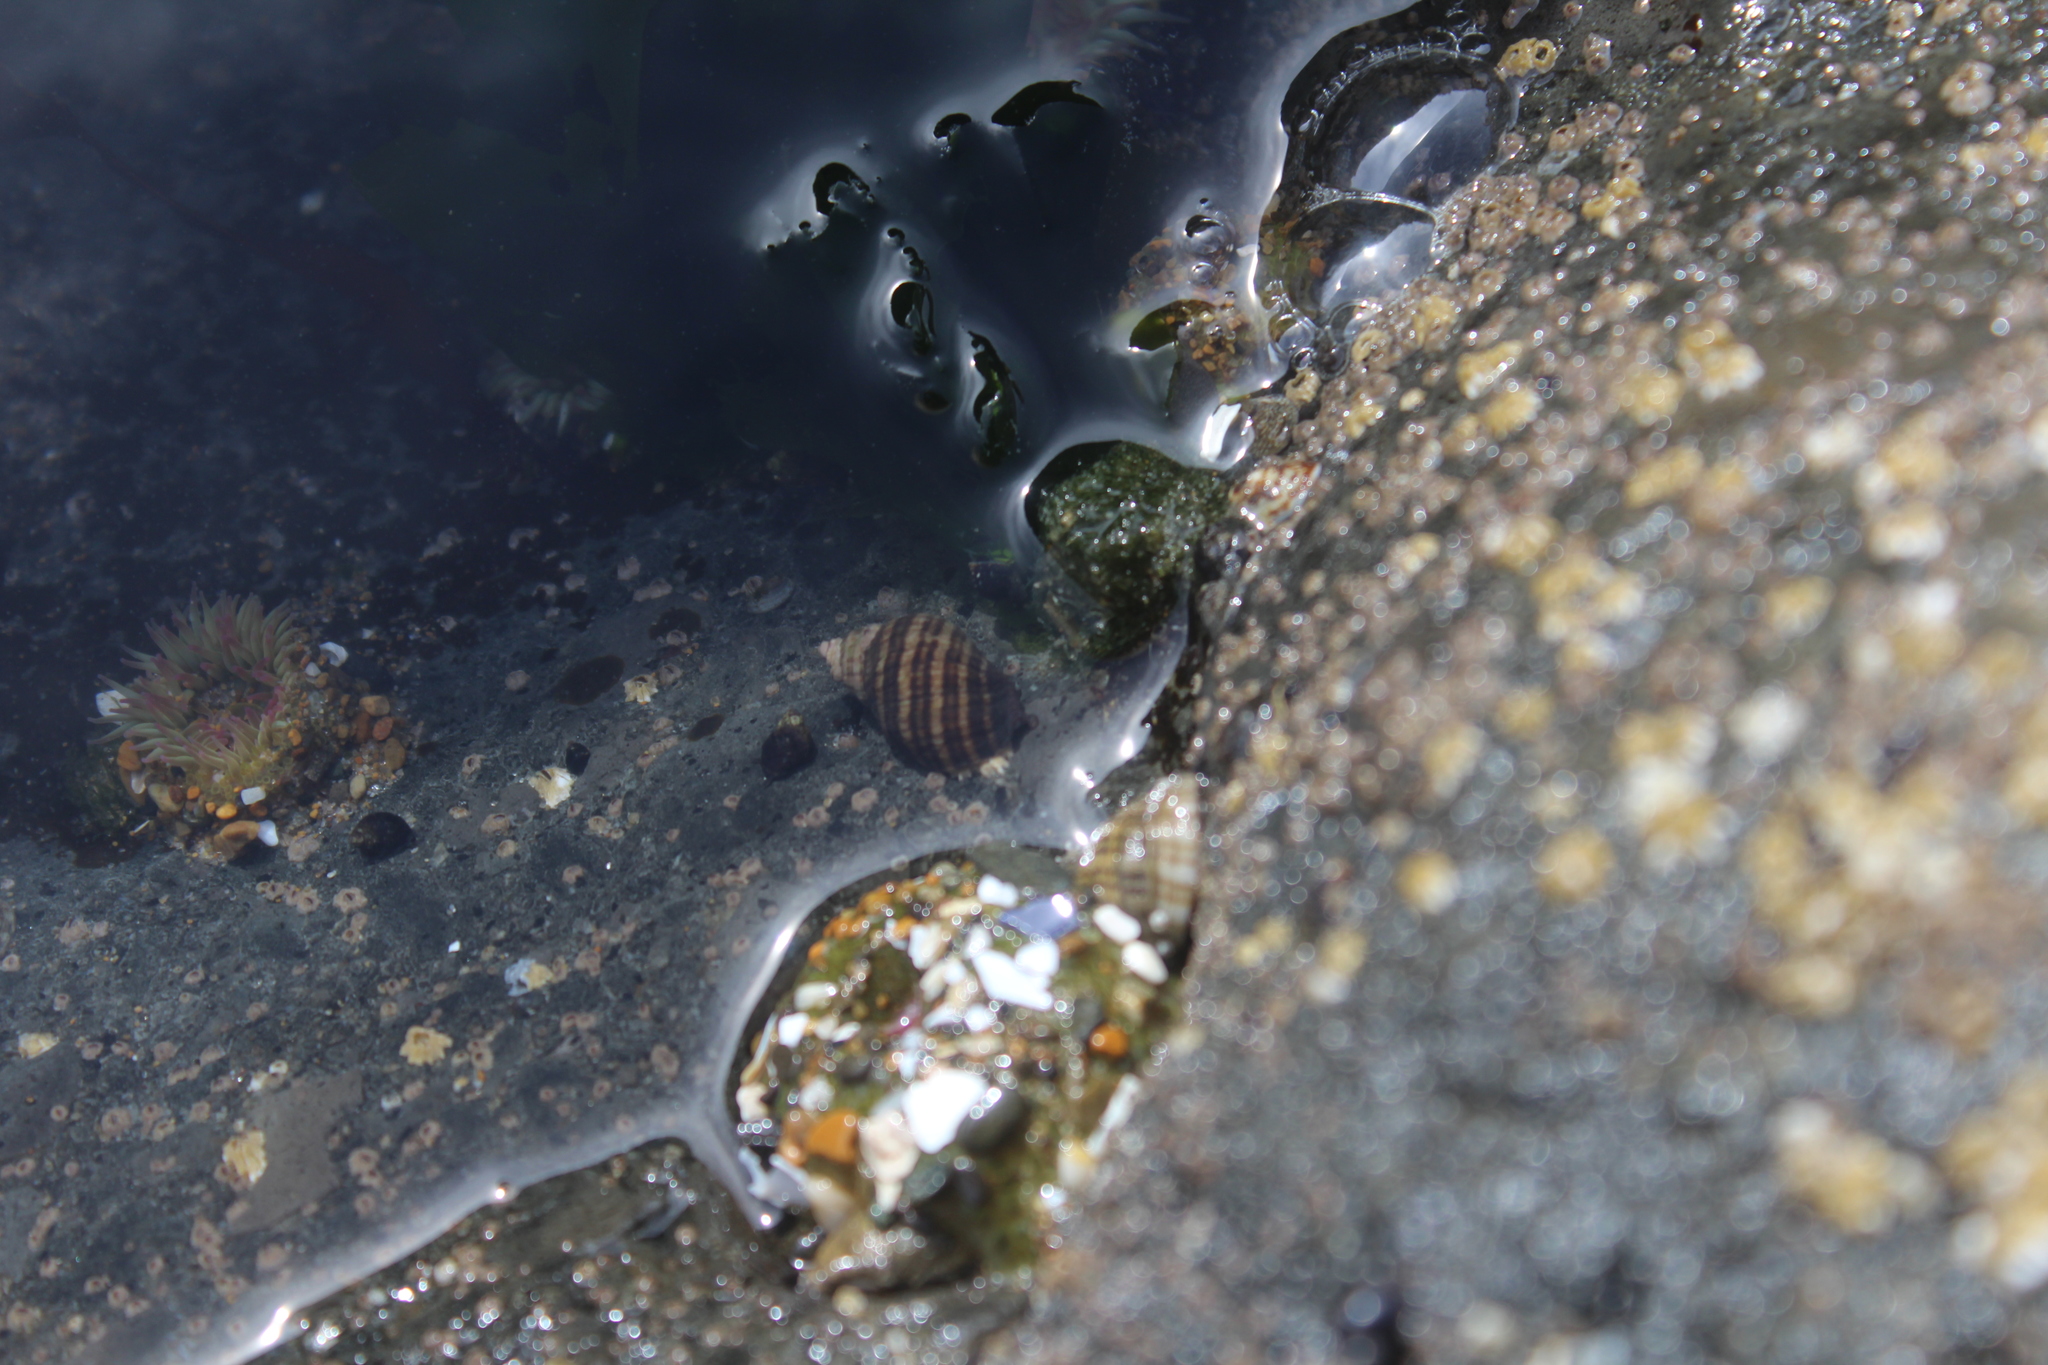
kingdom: Animalia
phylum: Mollusca
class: Gastropoda
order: Neogastropoda
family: Muricidae
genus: Nucella
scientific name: Nucella ostrina
